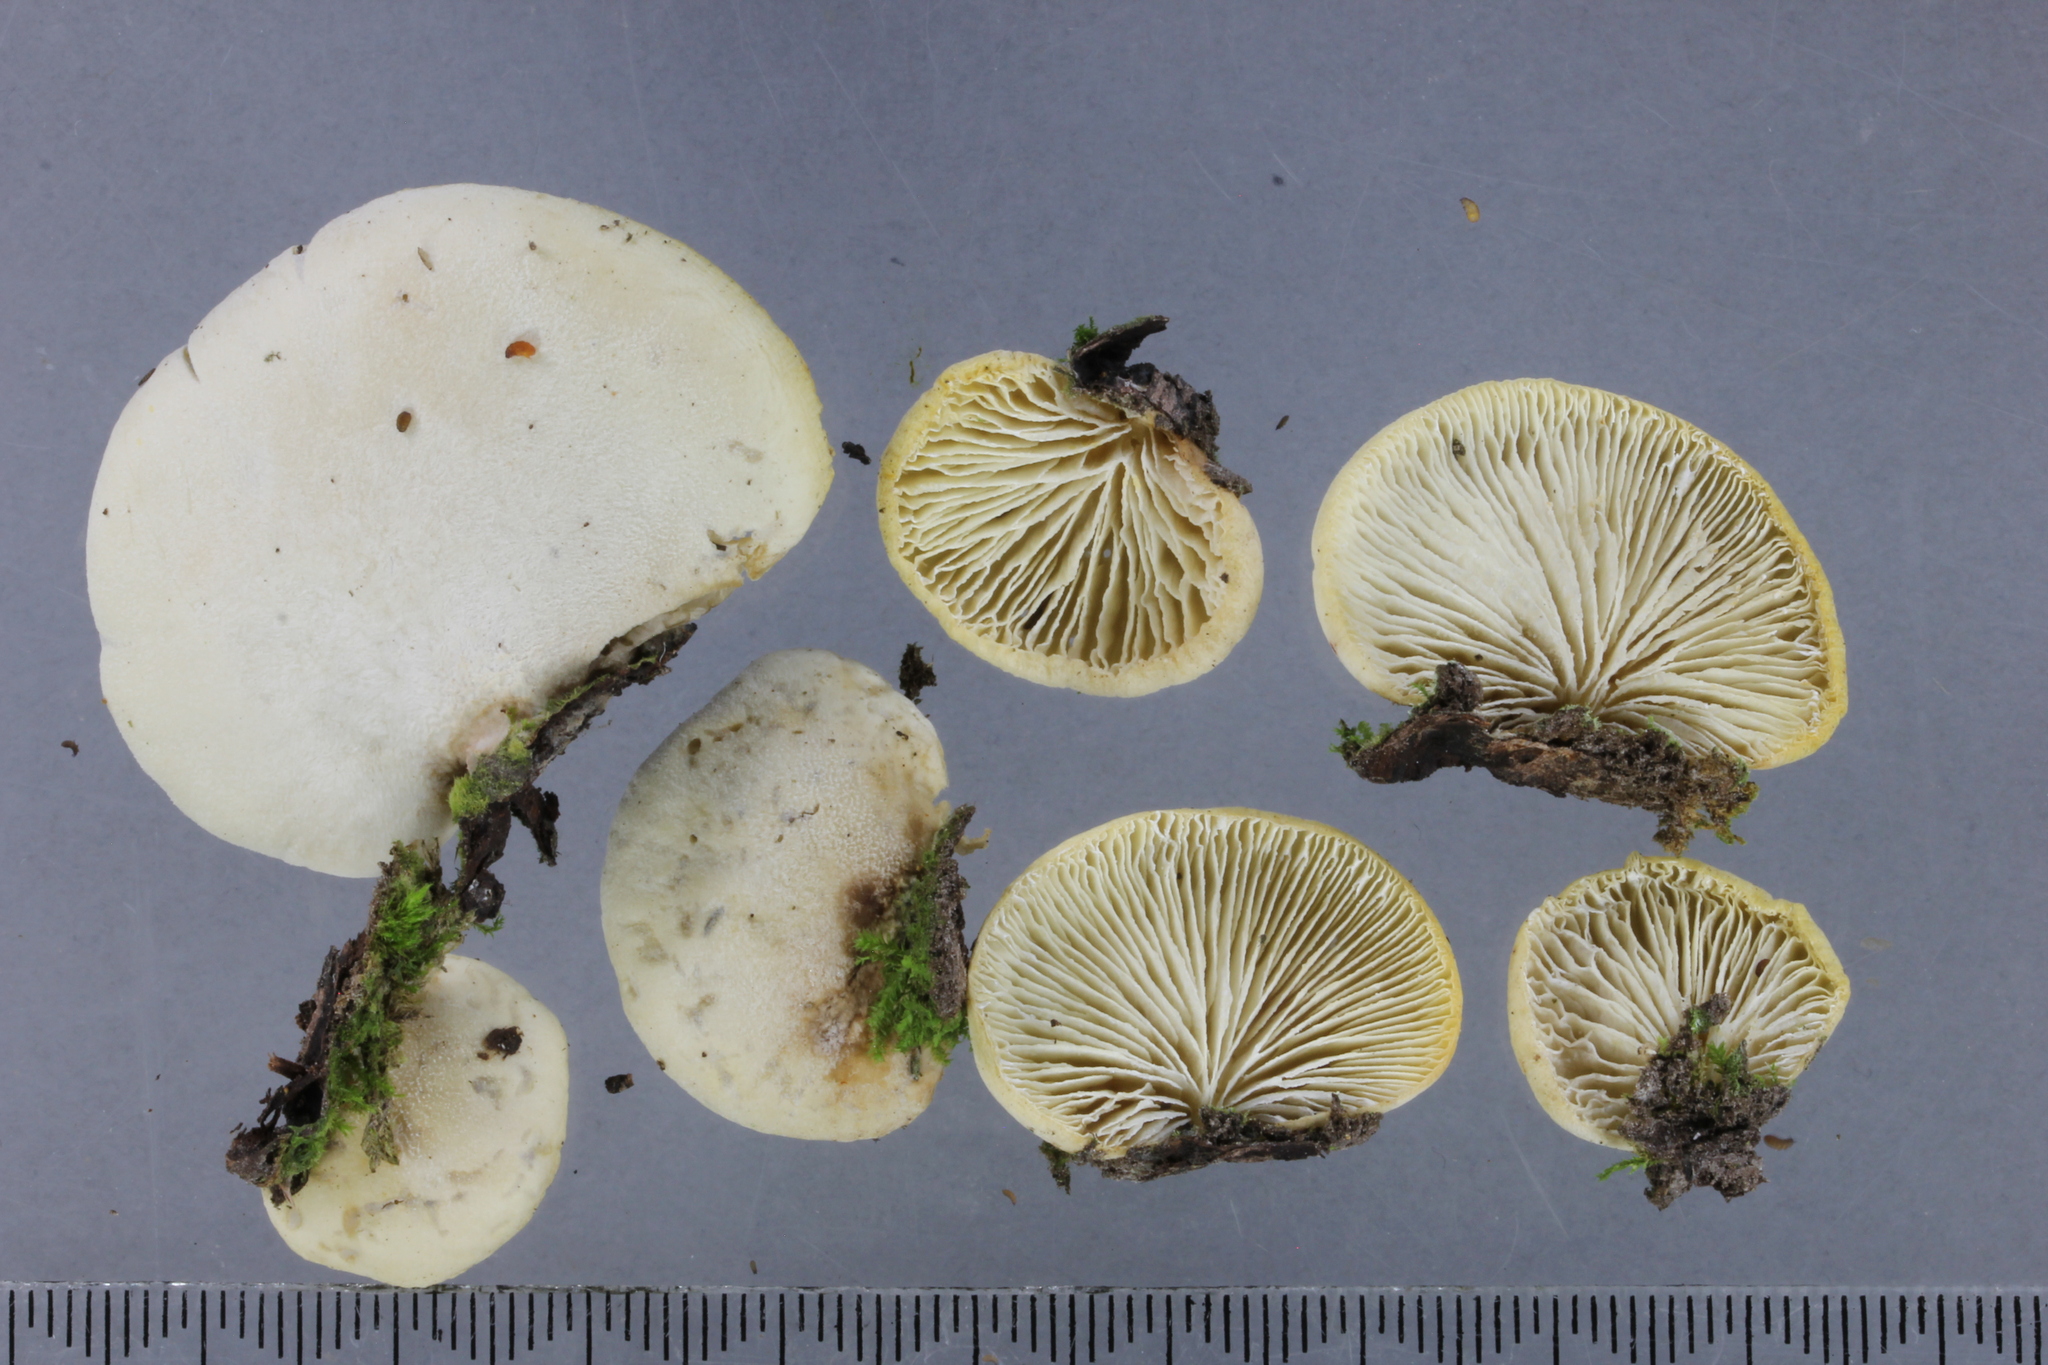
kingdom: Fungi
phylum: Basidiomycota
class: Agaricomycetes
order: Agaricales
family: Tricholomataceae
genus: Conchomyces
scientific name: Conchomyces bursiformis
